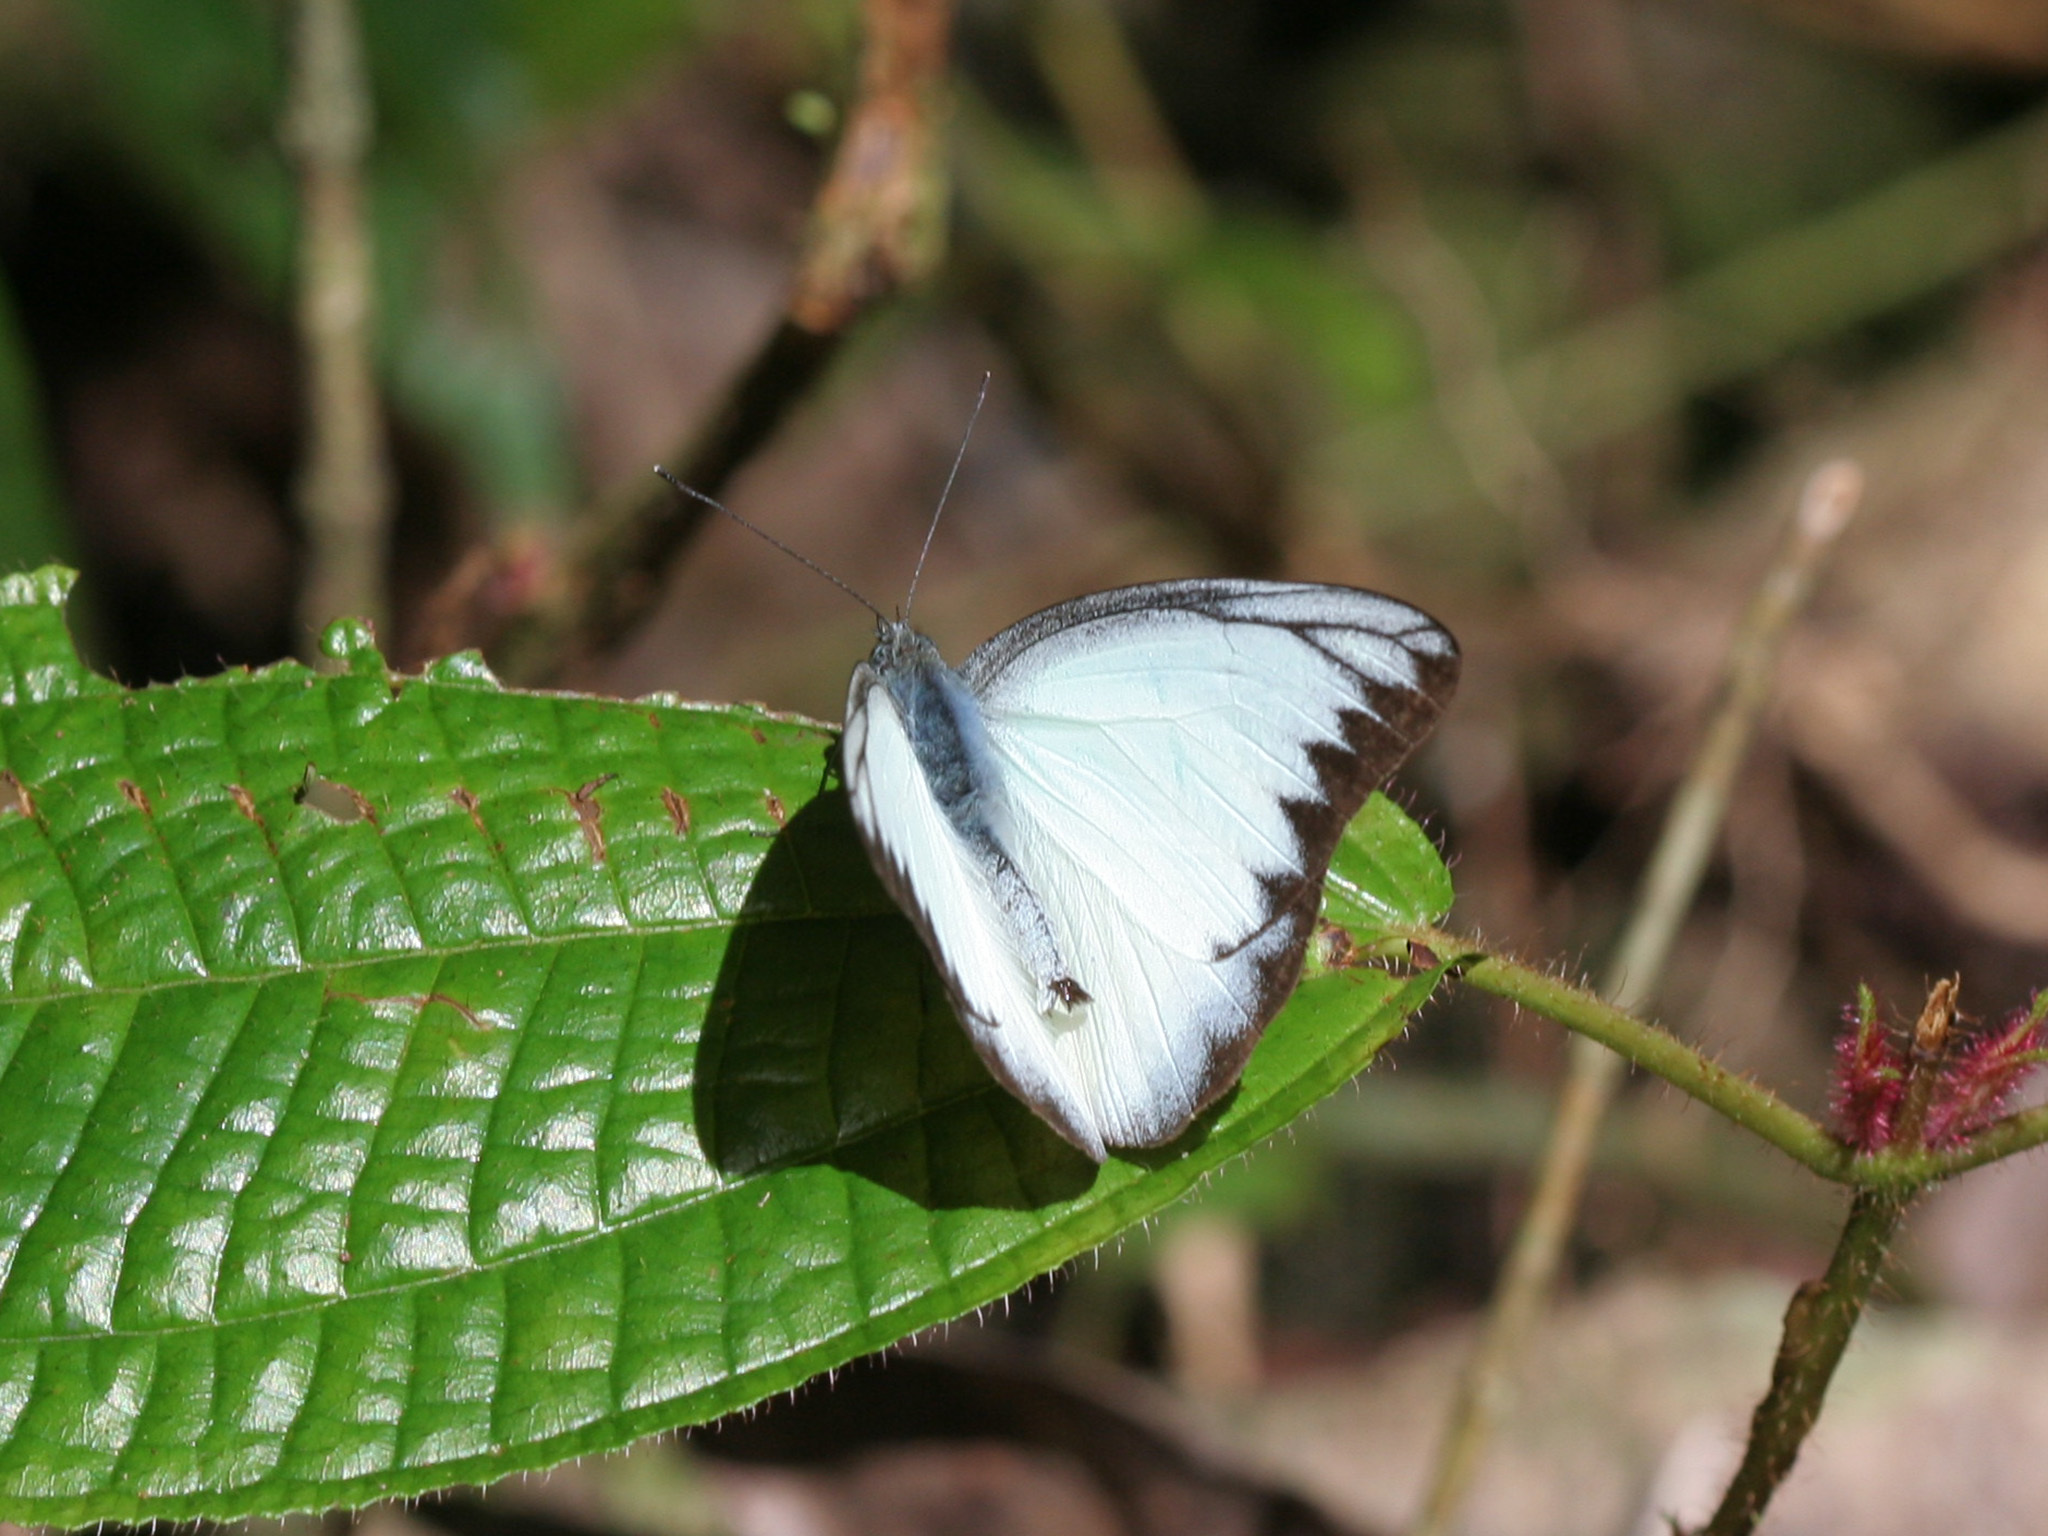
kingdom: Animalia
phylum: Arthropoda
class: Insecta
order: Lepidoptera
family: Pieridae
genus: Appias
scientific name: Appias lyncida
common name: Chocolate albatross
